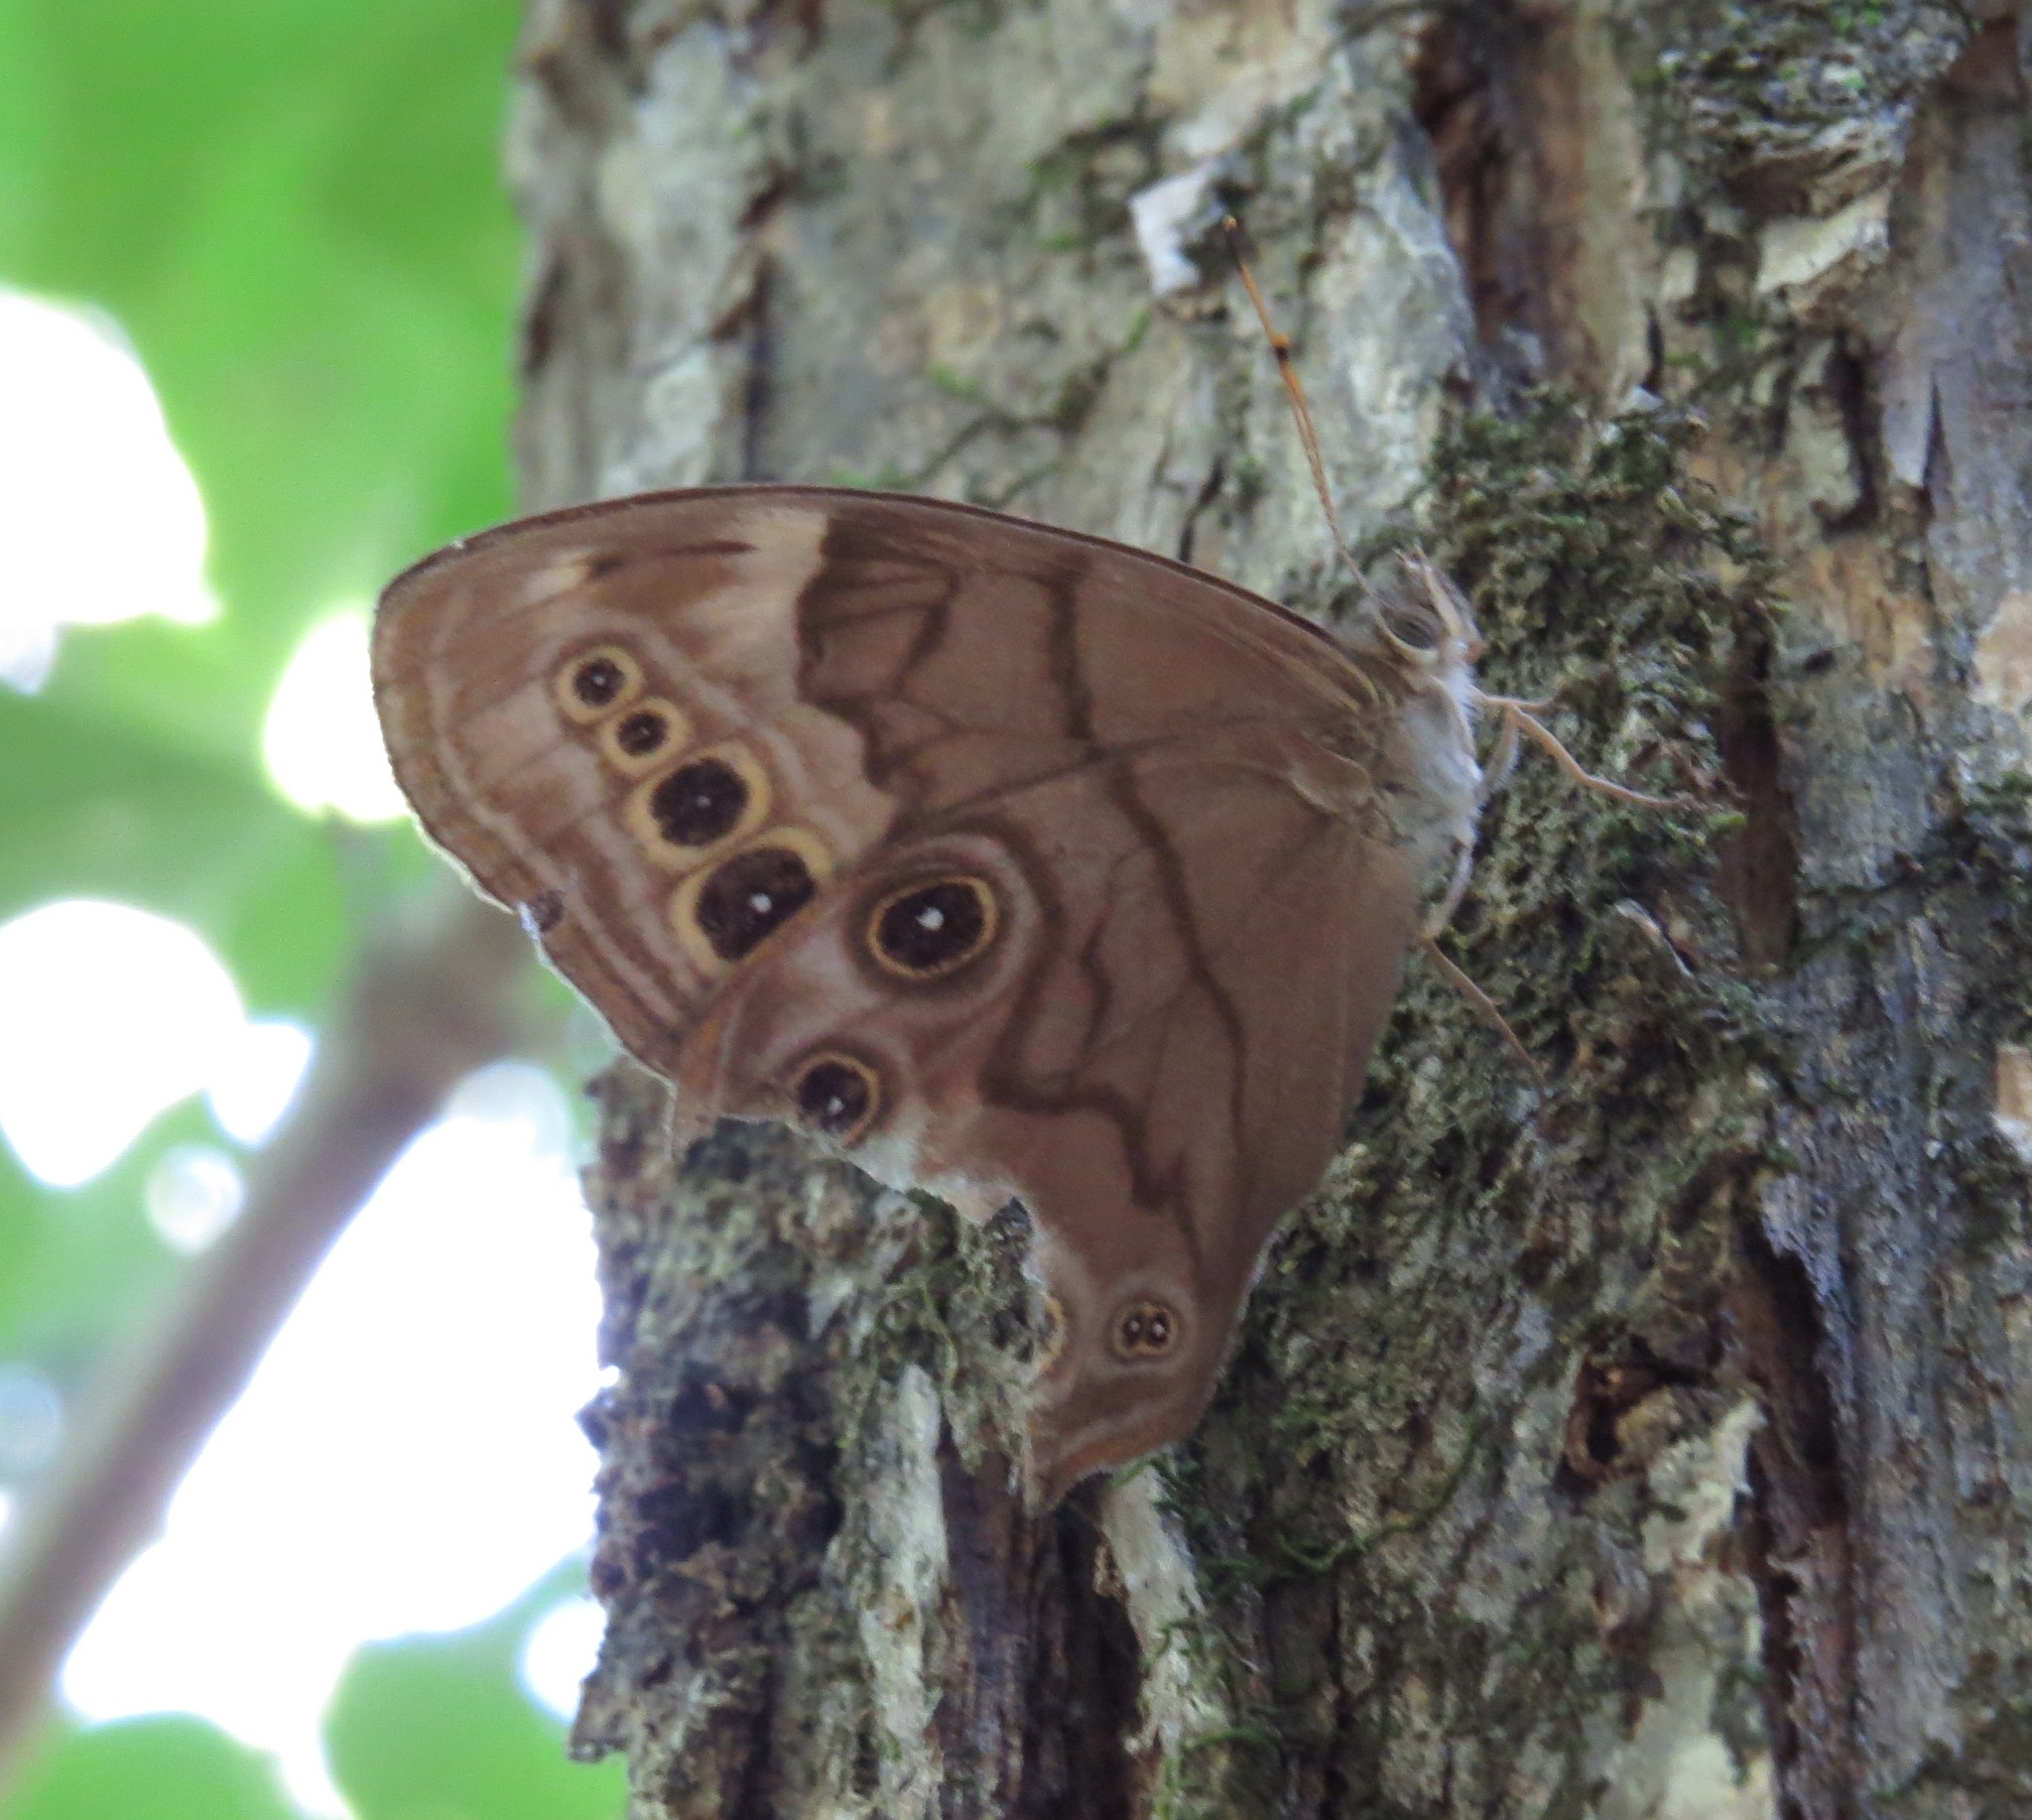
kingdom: Animalia
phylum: Arthropoda
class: Insecta
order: Lepidoptera
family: Nymphalidae
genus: Lethe
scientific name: Lethe anthedon
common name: Northern pearly-eye
